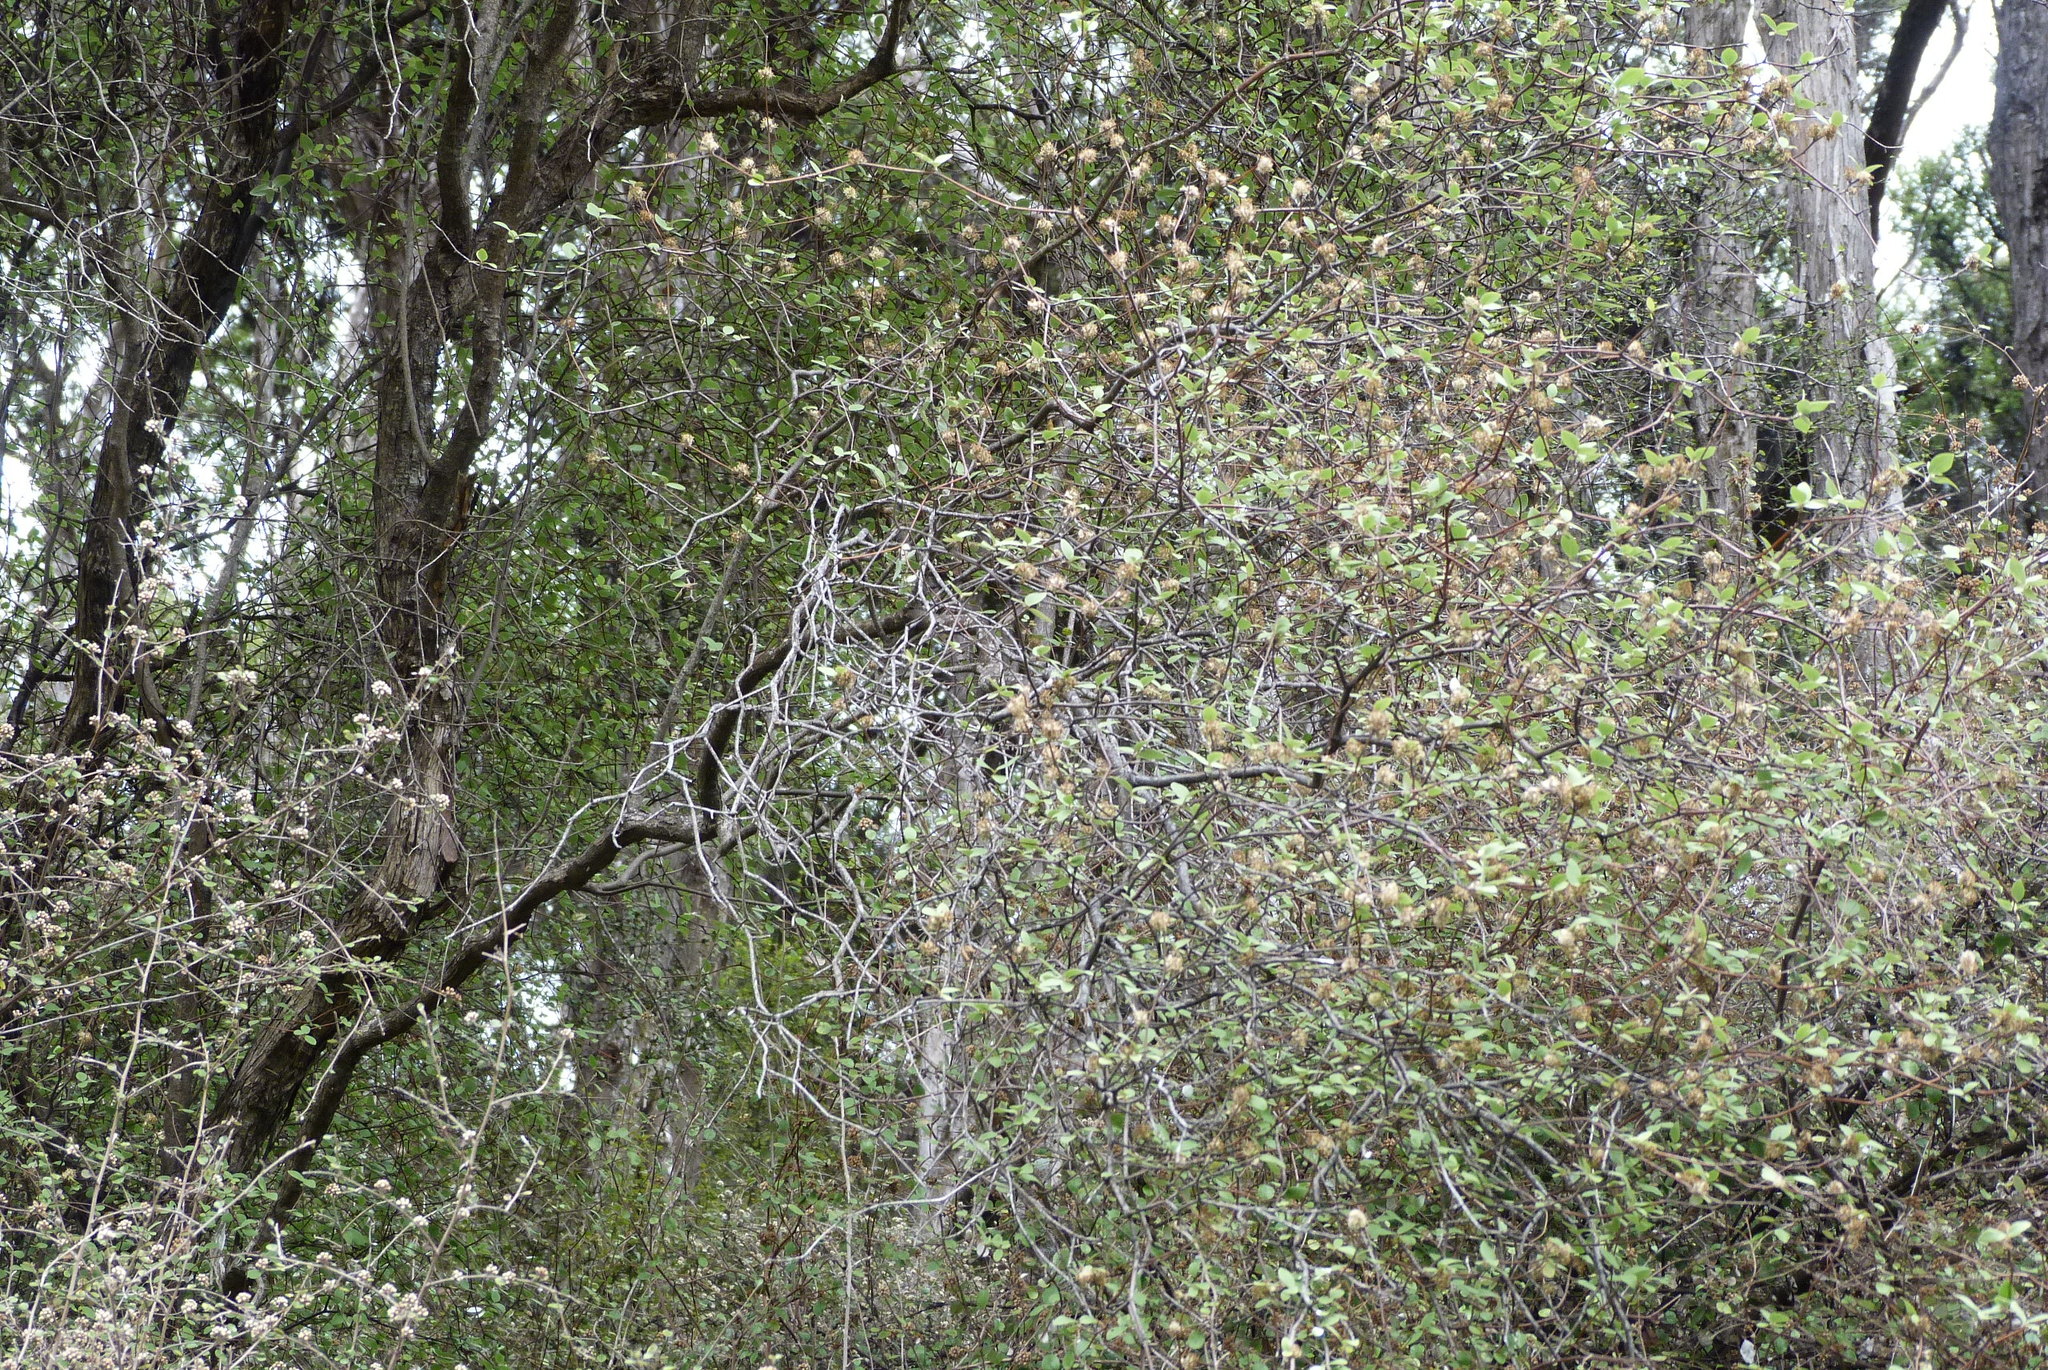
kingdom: Plantae
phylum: Tracheophyta
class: Magnoliopsida
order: Asterales
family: Asteraceae
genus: Olearia
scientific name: Olearia fragrantissima
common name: Fragrant tree daisy
